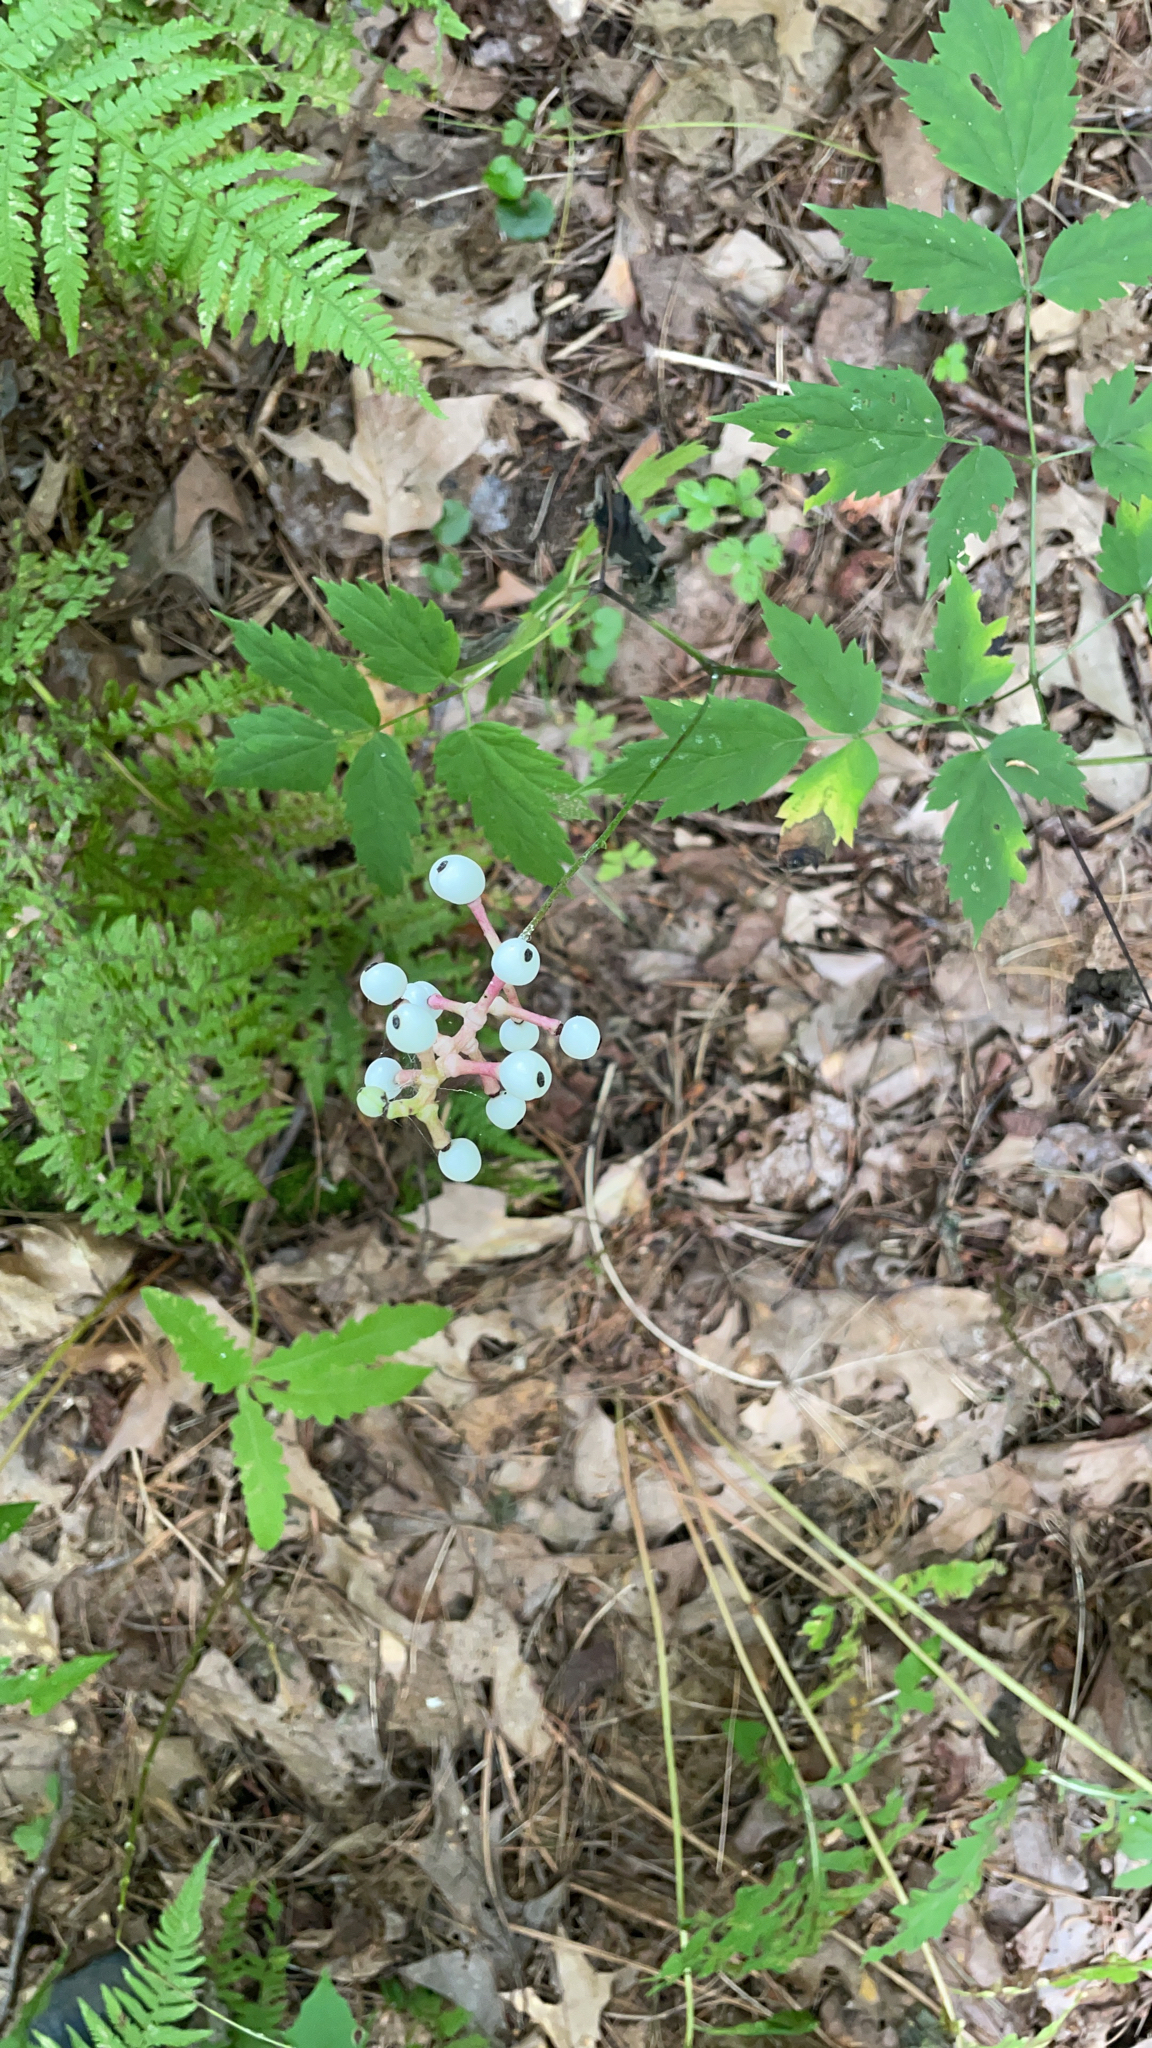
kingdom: Plantae
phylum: Tracheophyta
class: Magnoliopsida
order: Ranunculales
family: Ranunculaceae
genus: Actaea
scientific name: Actaea pachypoda
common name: Doll's-eyes
